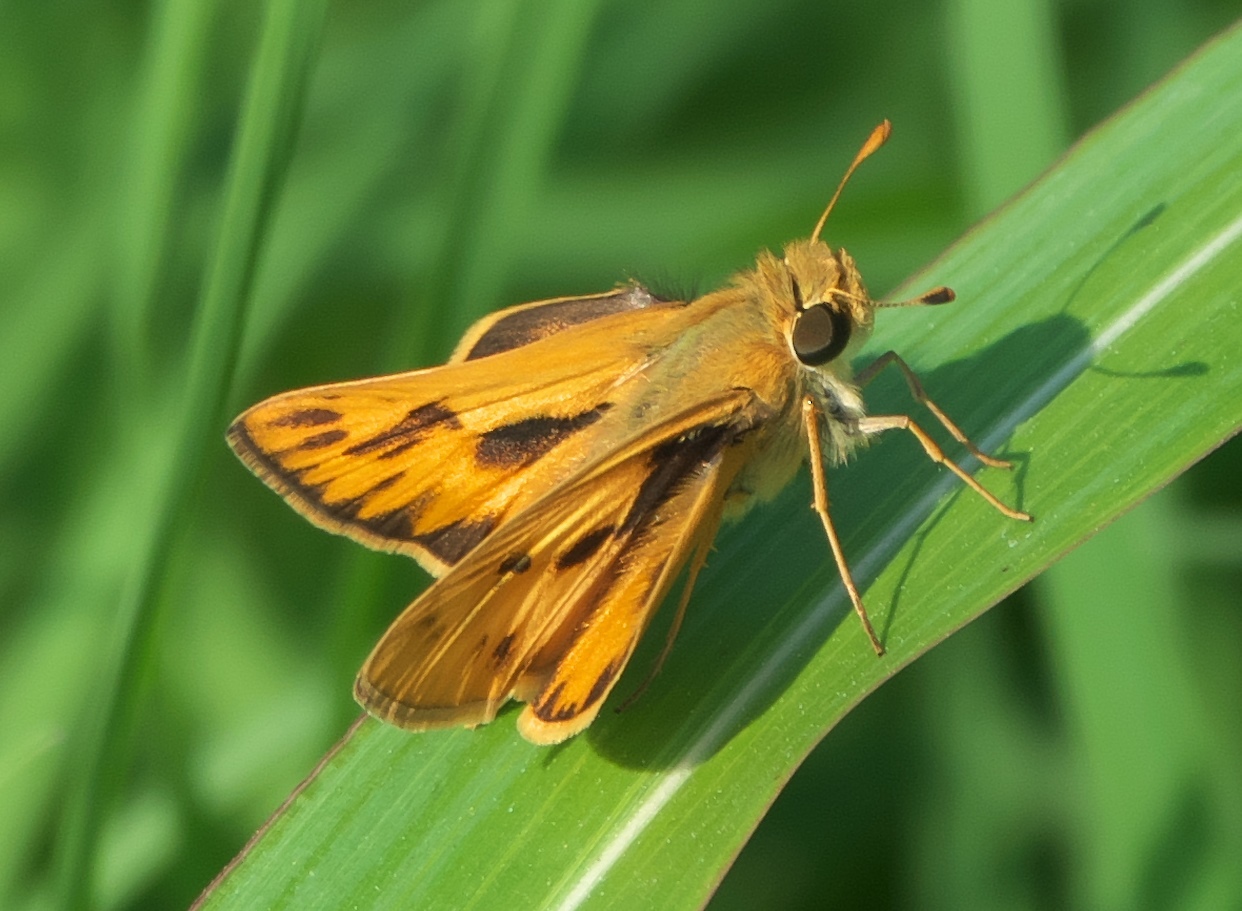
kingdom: Animalia
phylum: Arthropoda
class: Insecta
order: Lepidoptera
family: Hesperiidae
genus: Hylephila
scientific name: Hylephila phyleus
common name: Fiery skipper
